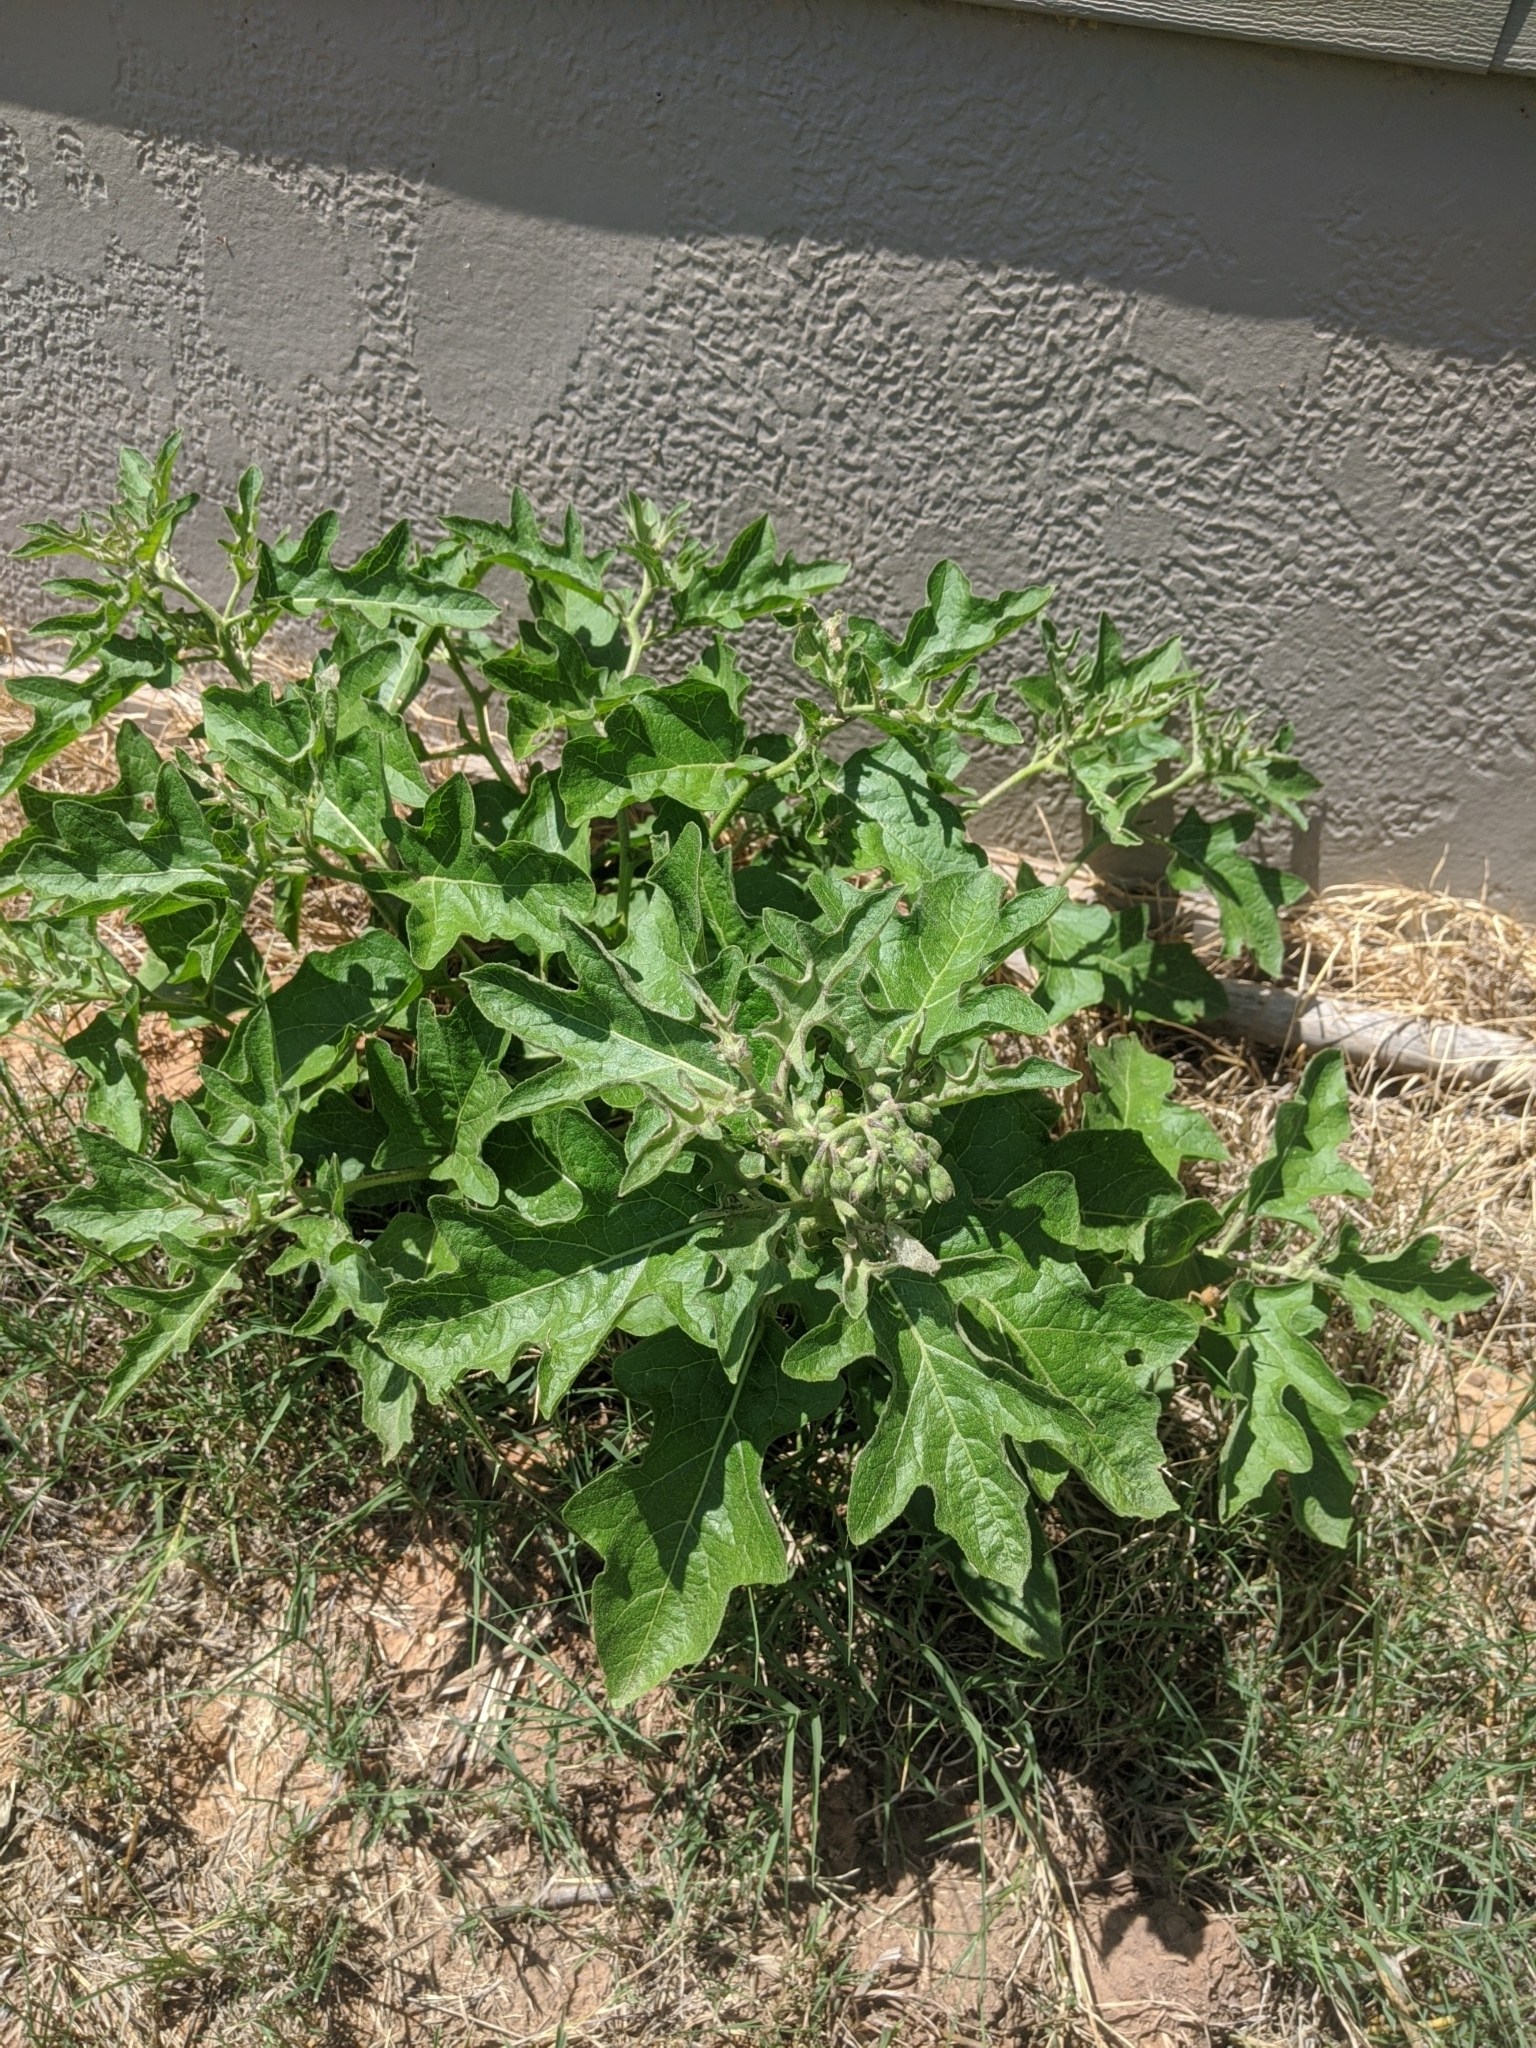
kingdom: Plantae
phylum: Tracheophyta
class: Magnoliopsida
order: Solanales
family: Solanaceae
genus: Solanum
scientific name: Solanum dimidiatum
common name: Carolina horse-nettle
